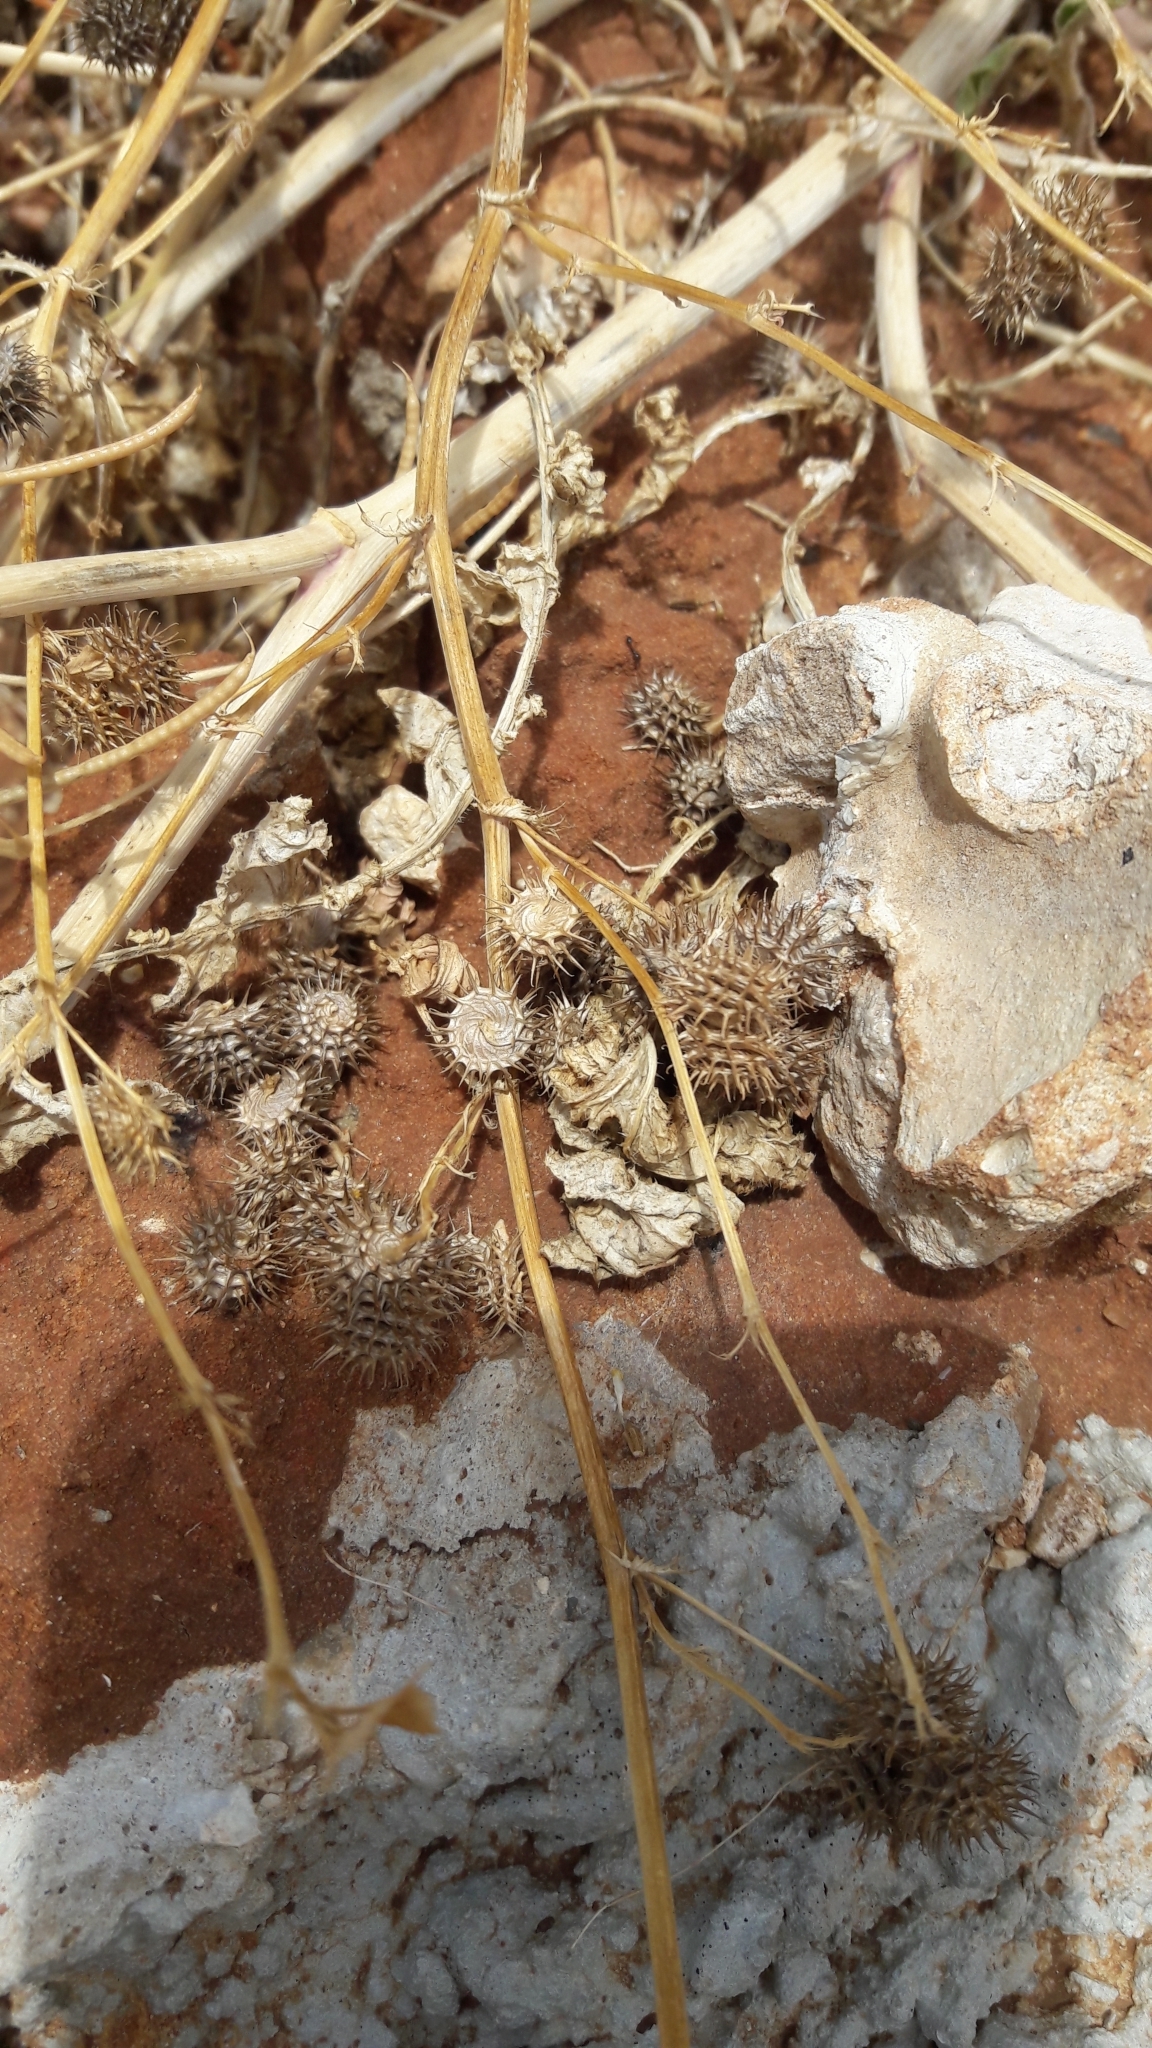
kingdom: Plantae
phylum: Tracheophyta
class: Magnoliopsida
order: Fabales
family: Fabaceae
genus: Medicago
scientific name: Medicago polymorpha
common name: Burclover
